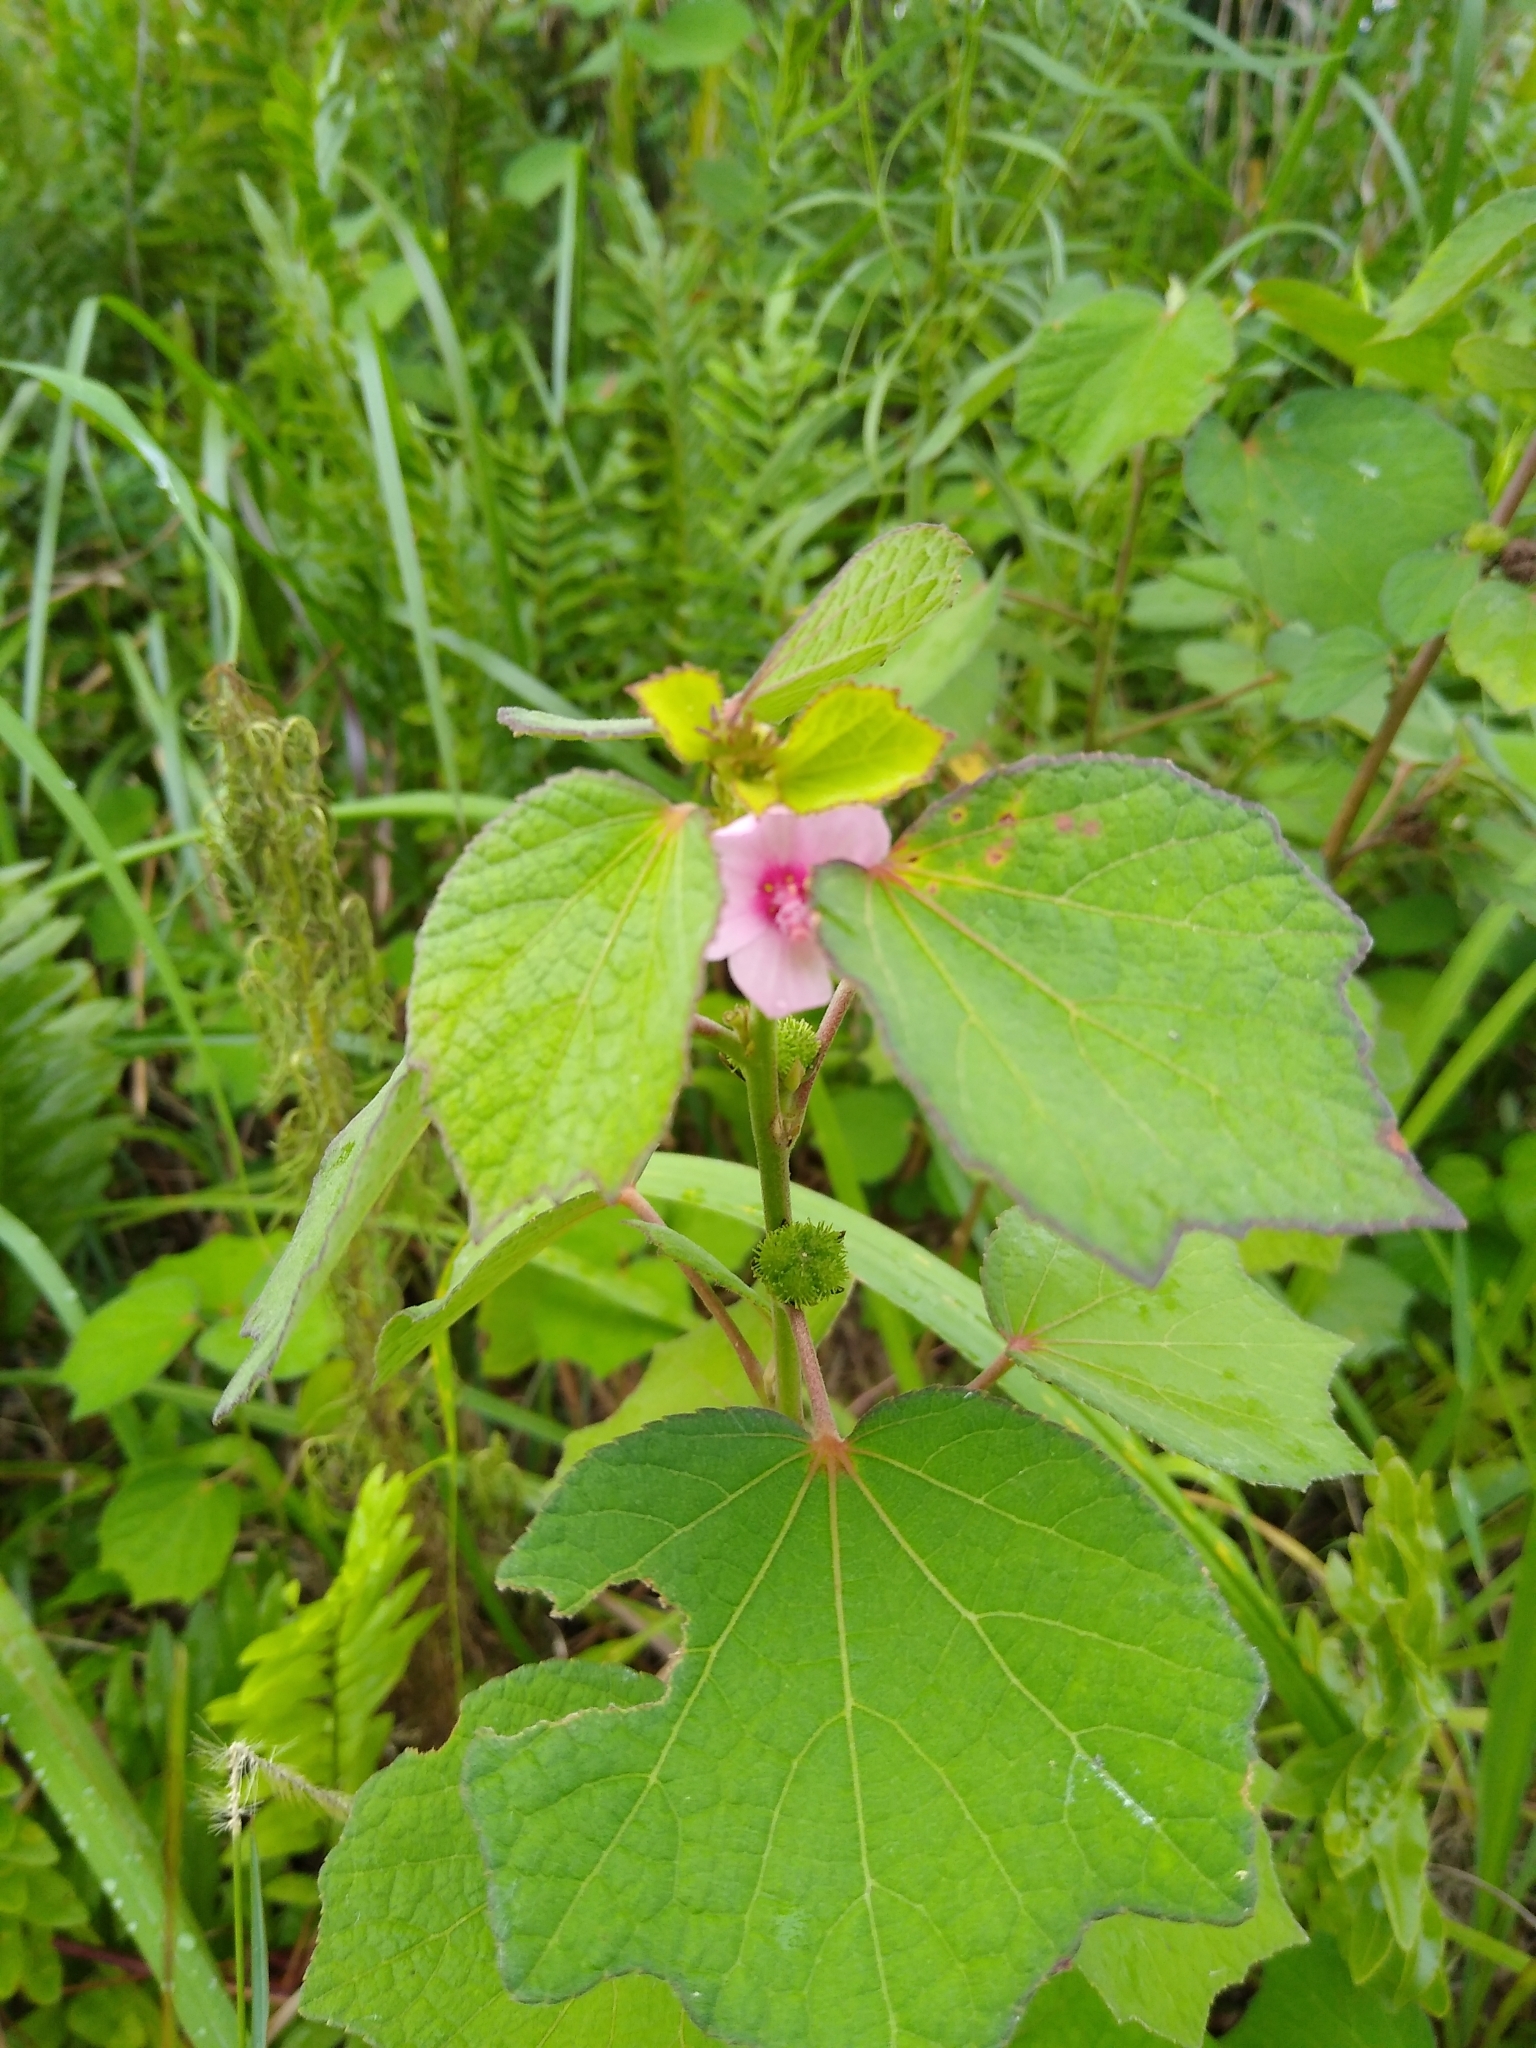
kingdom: Plantae
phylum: Tracheophyta
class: Magnoliopsida
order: Malvales
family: Malvaceae
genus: Urena
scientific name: Urena lobata
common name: Caesarweed
